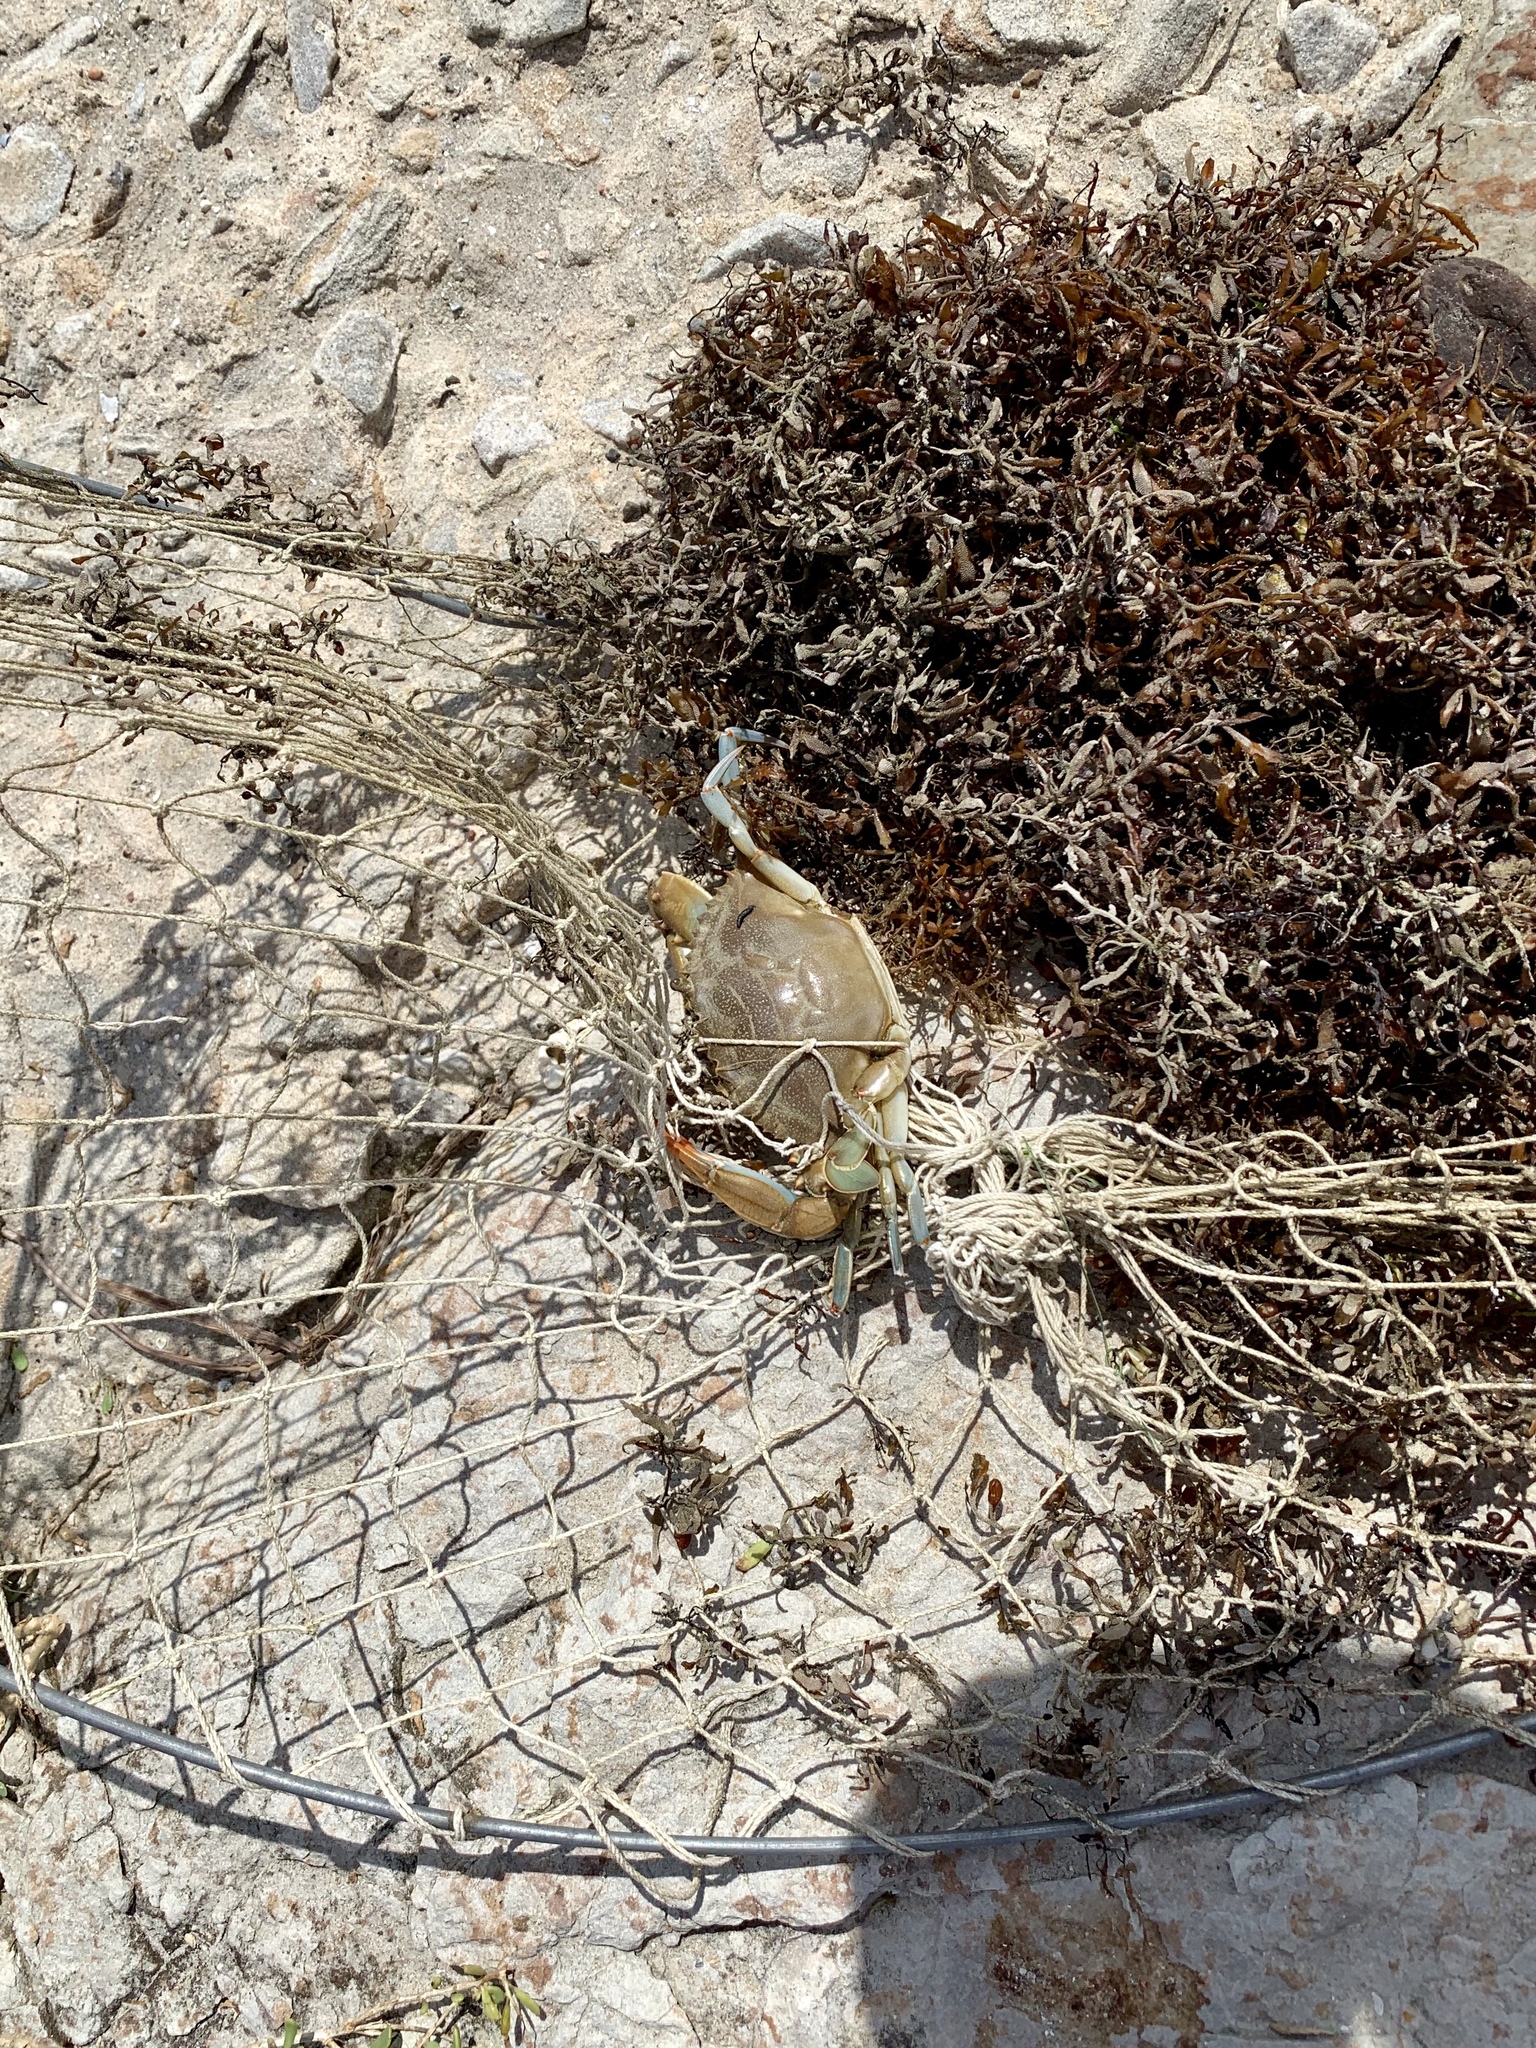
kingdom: Animalia
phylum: Arthropoda
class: Malacostraca
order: Decapoda
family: Portunidae
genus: Callinectes
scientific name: Callinectes sapidus
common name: Blue crab
